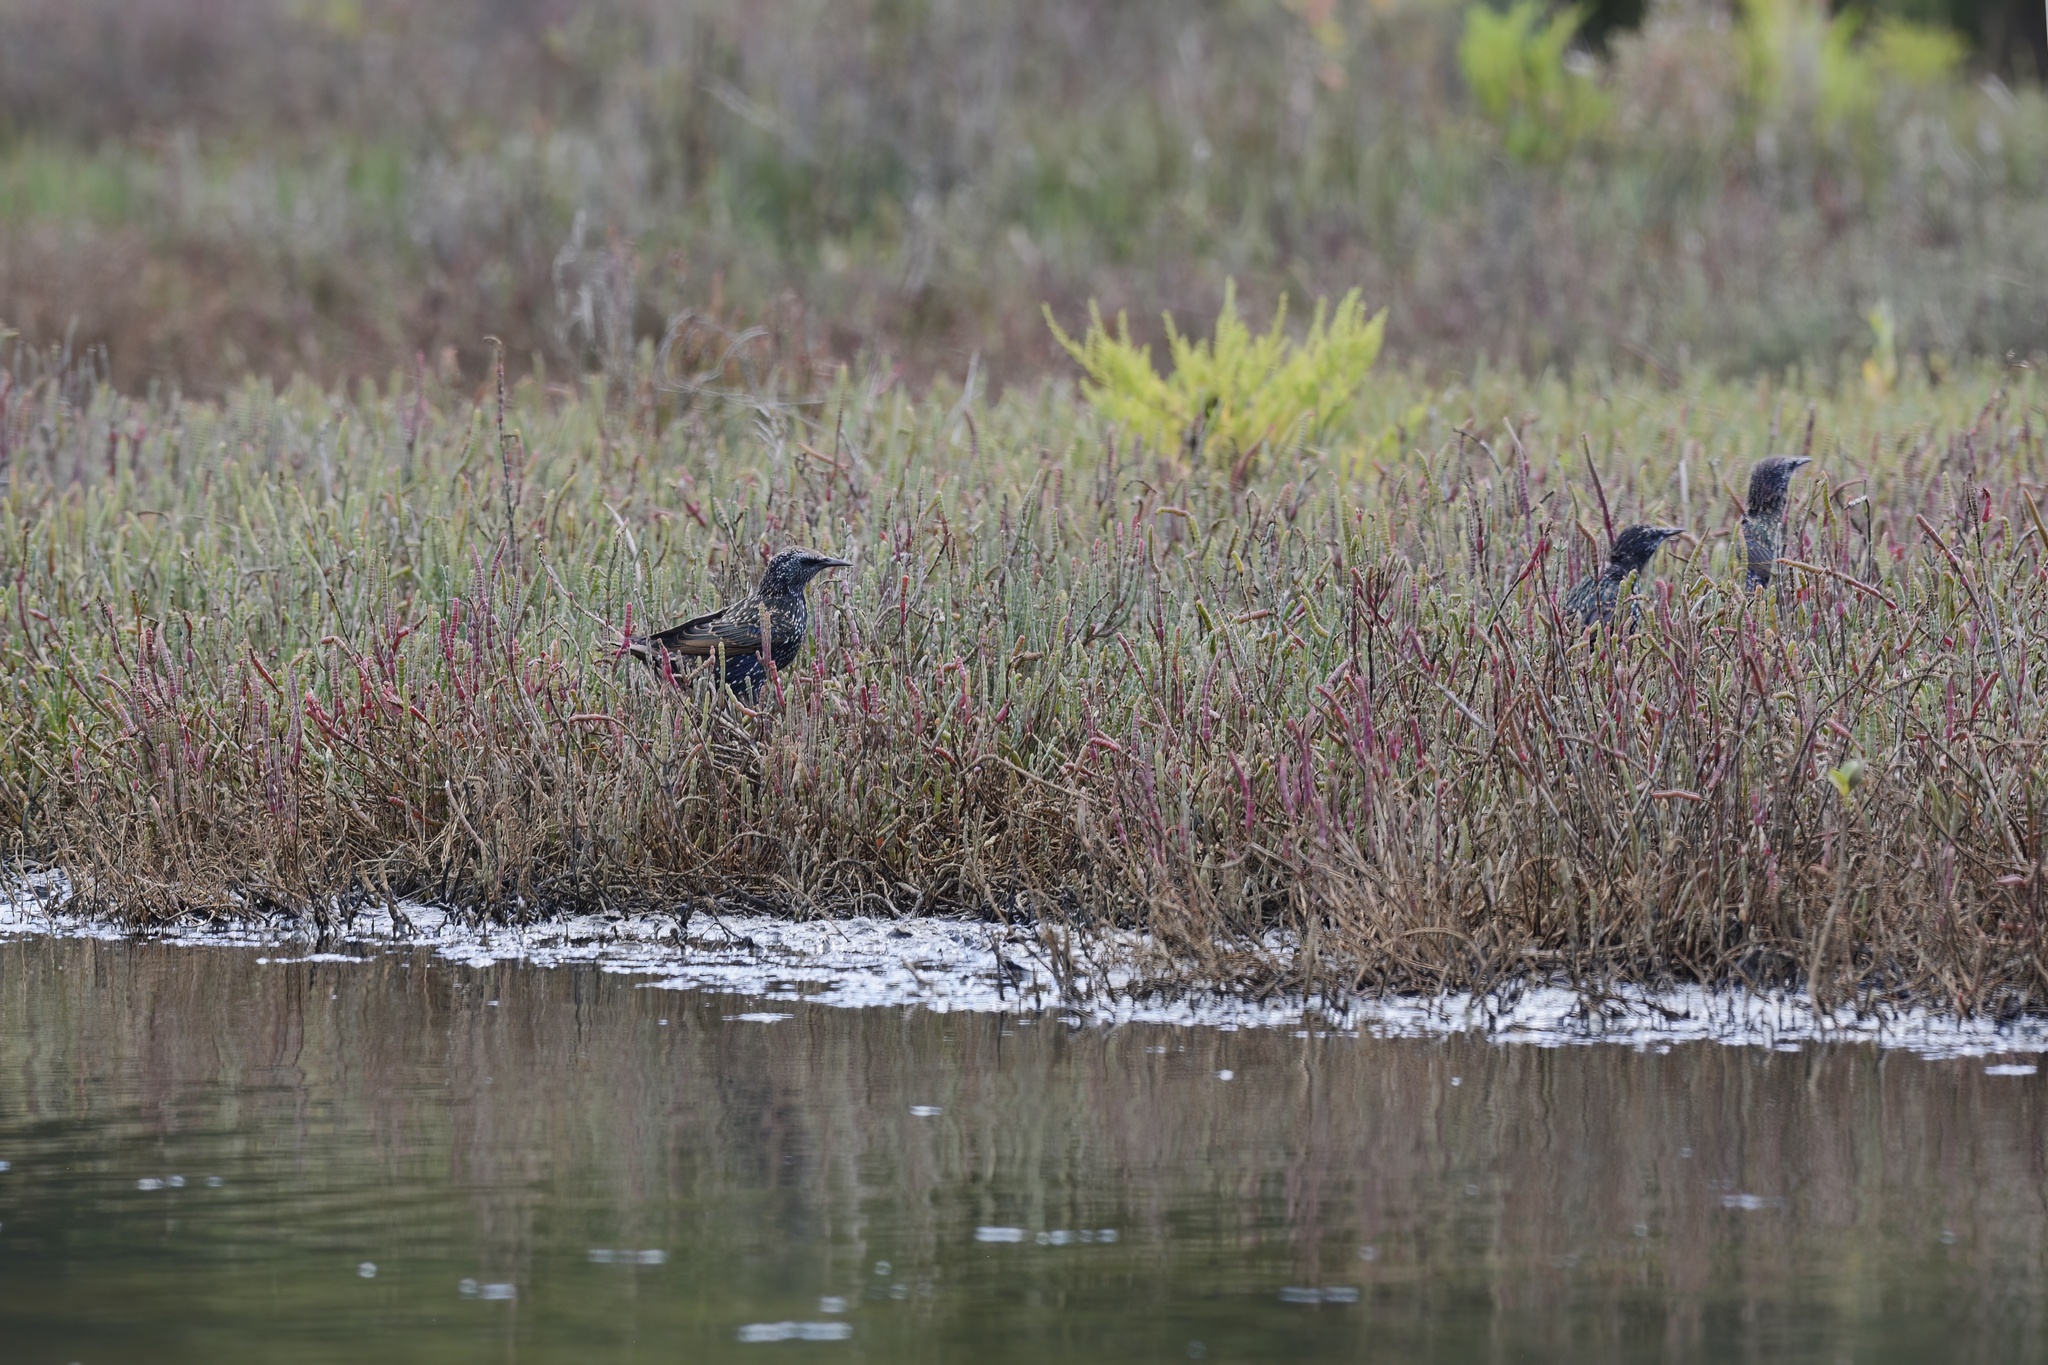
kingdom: Animalia
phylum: Chordata
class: Aves
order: Passeriformes
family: Sturnidae
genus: Sturnus
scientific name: Sturnus vulgaris
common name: Common starling
